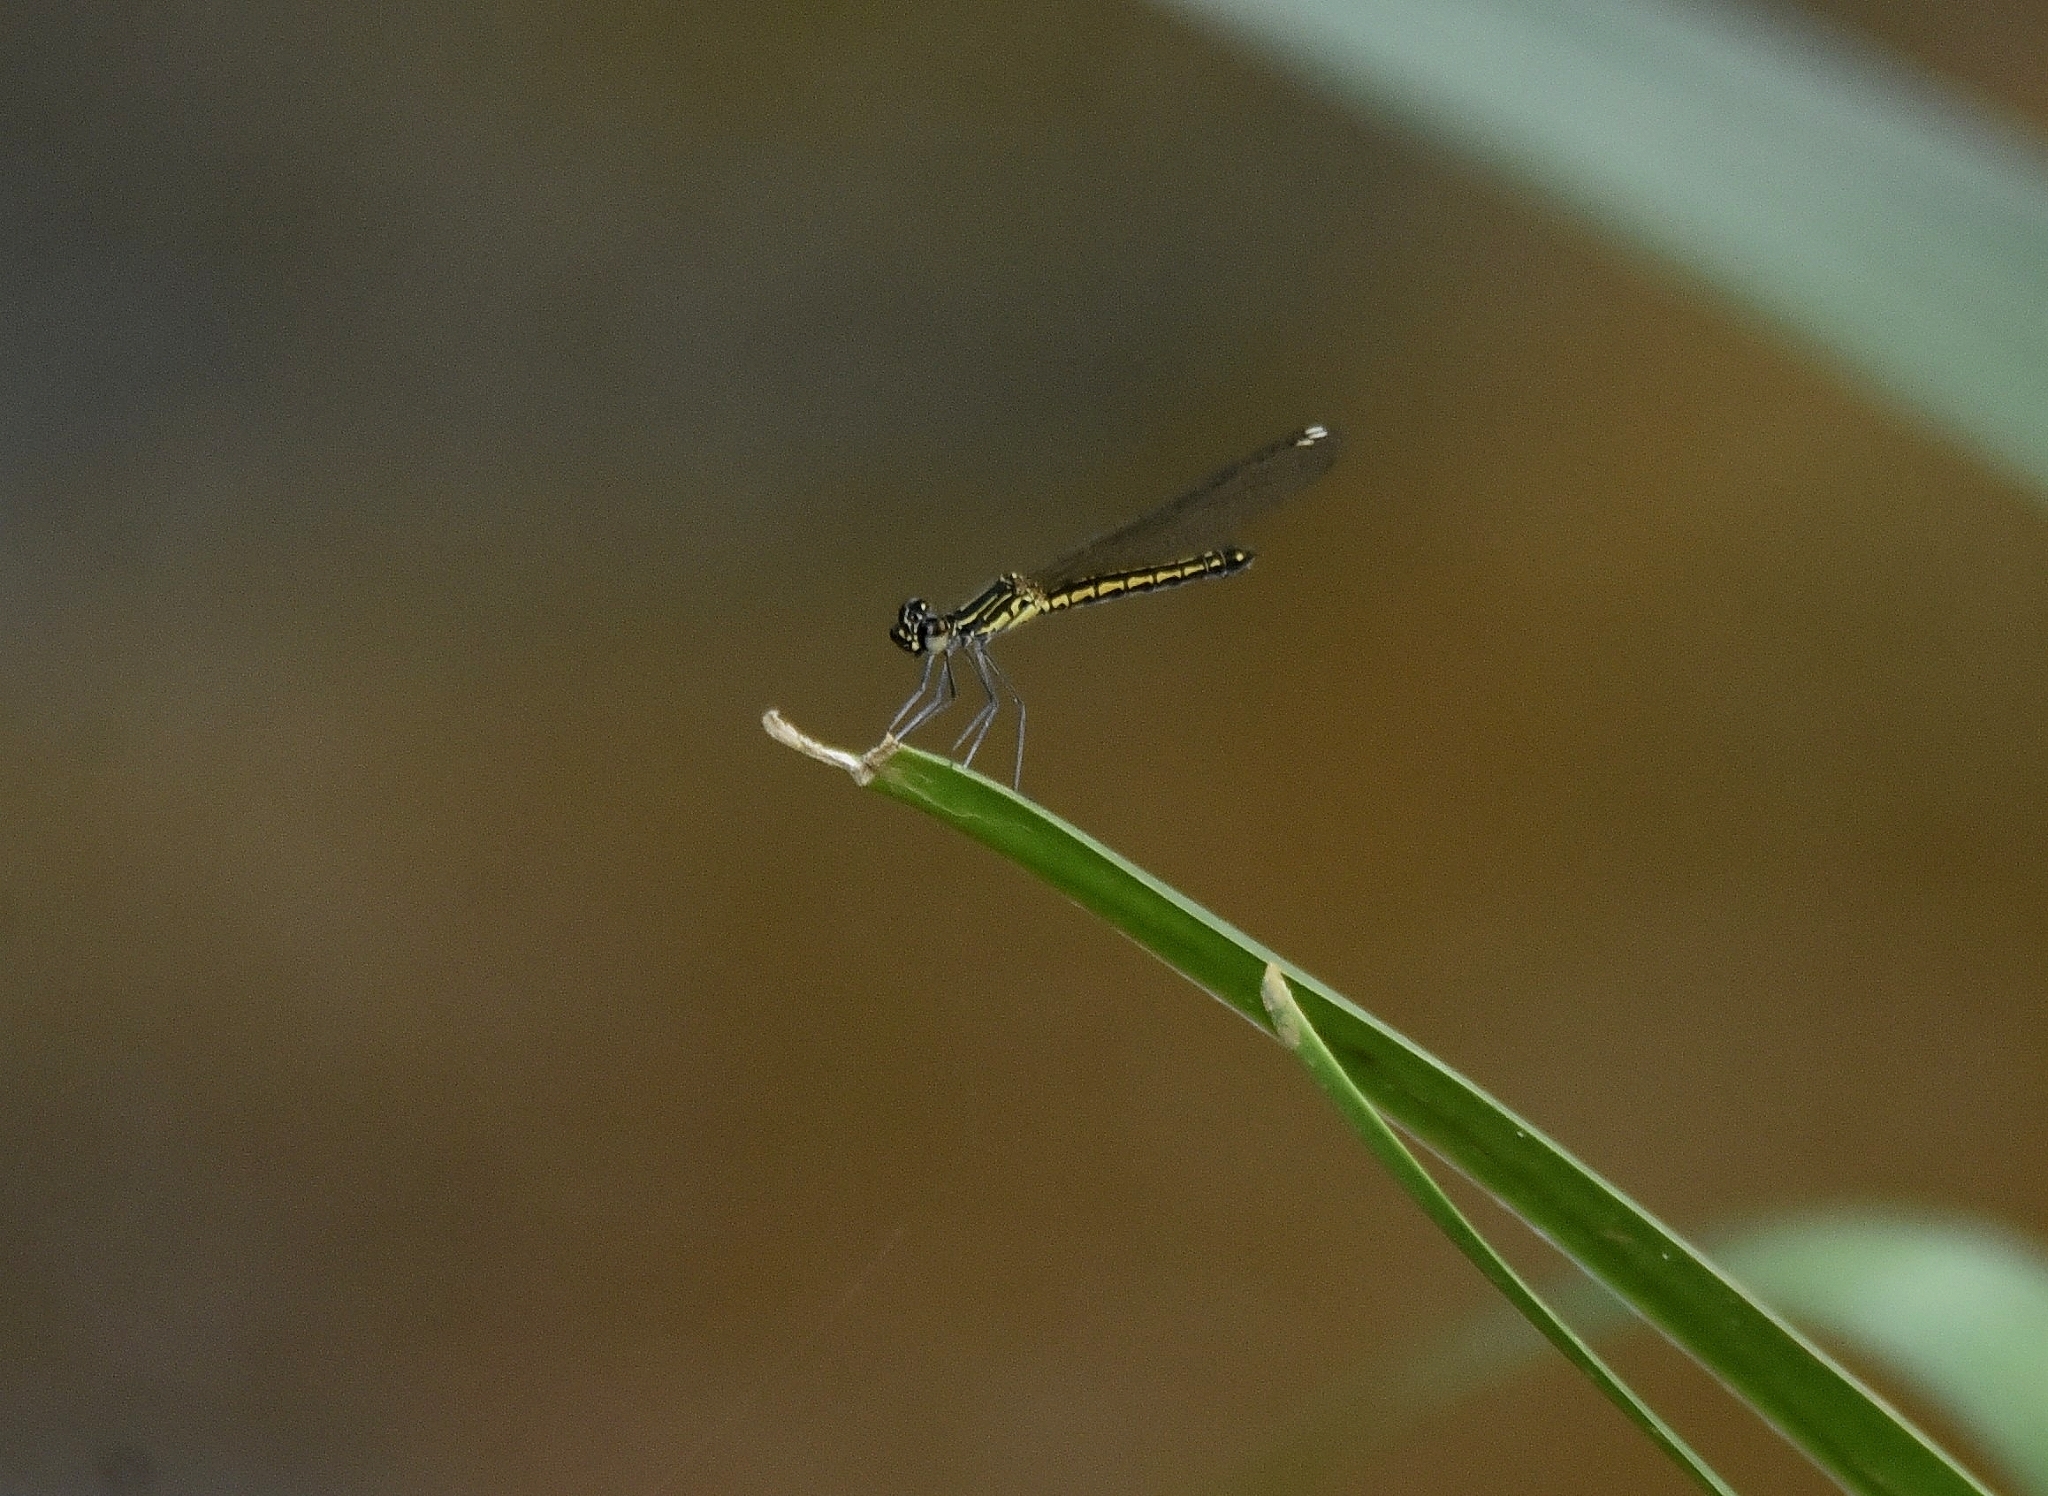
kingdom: Animalia
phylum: Arthropoda
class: Insecta
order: Odonata
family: Chlorocyphidae
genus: Libellago
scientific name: Libellago indica
